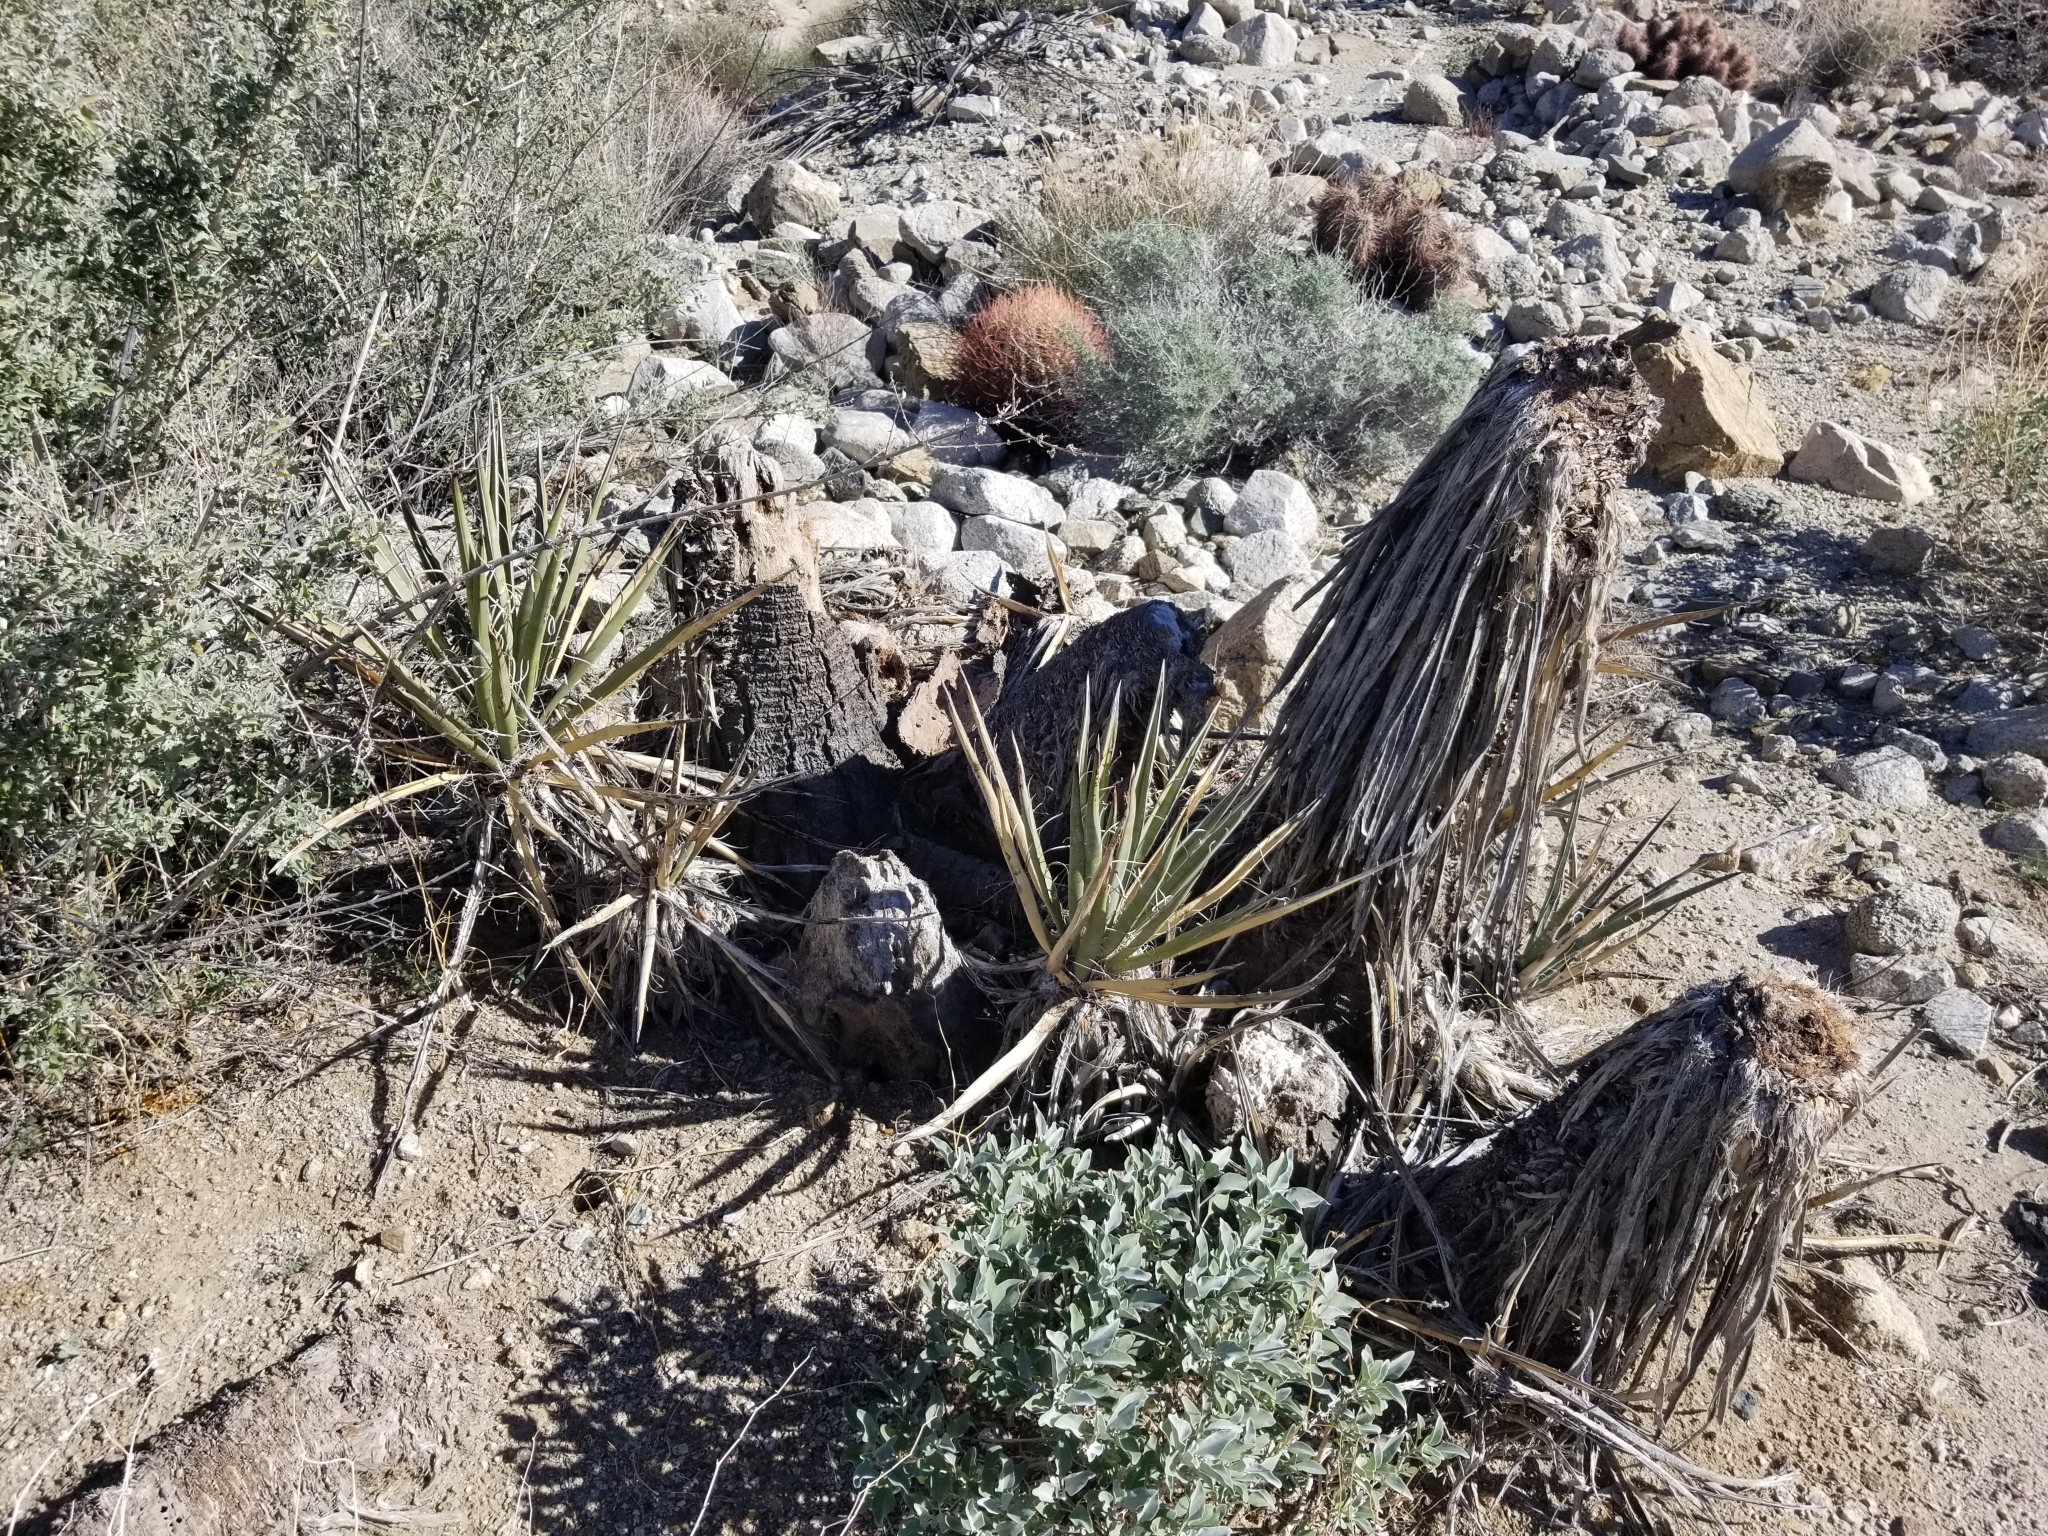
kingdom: Plantae
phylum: Tracheophyta
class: Liliopsida
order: Asparagales
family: Asparagaceae
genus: Yucca
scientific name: Yucca schidigera
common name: Mojave yucca
